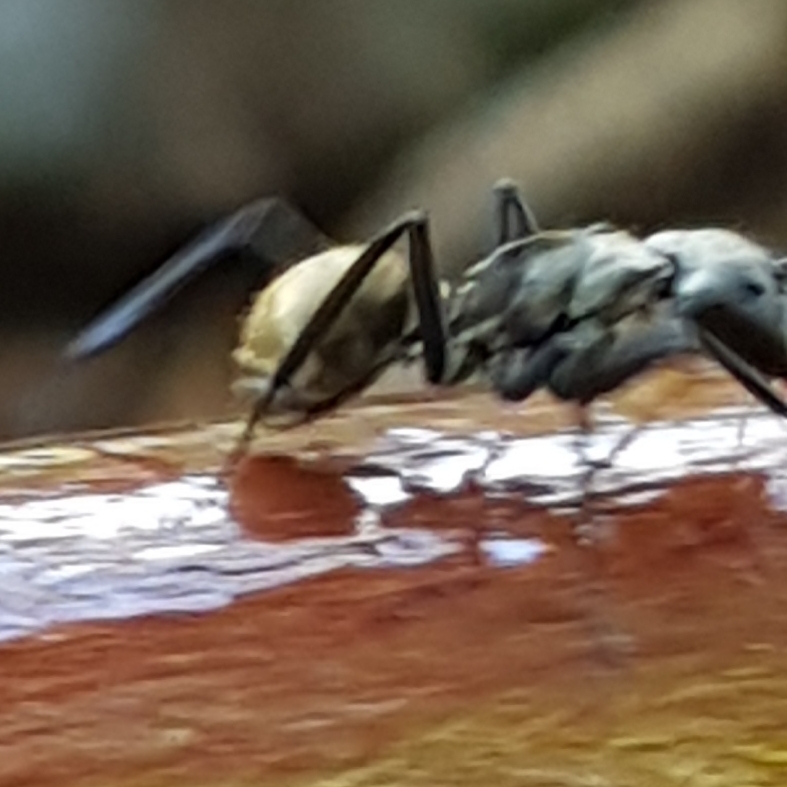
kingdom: Animalia
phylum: Arthropoda
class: Insecta
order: Hymenoptera
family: Formicidae
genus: Camponotus
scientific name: Camponotus sericeiventris
